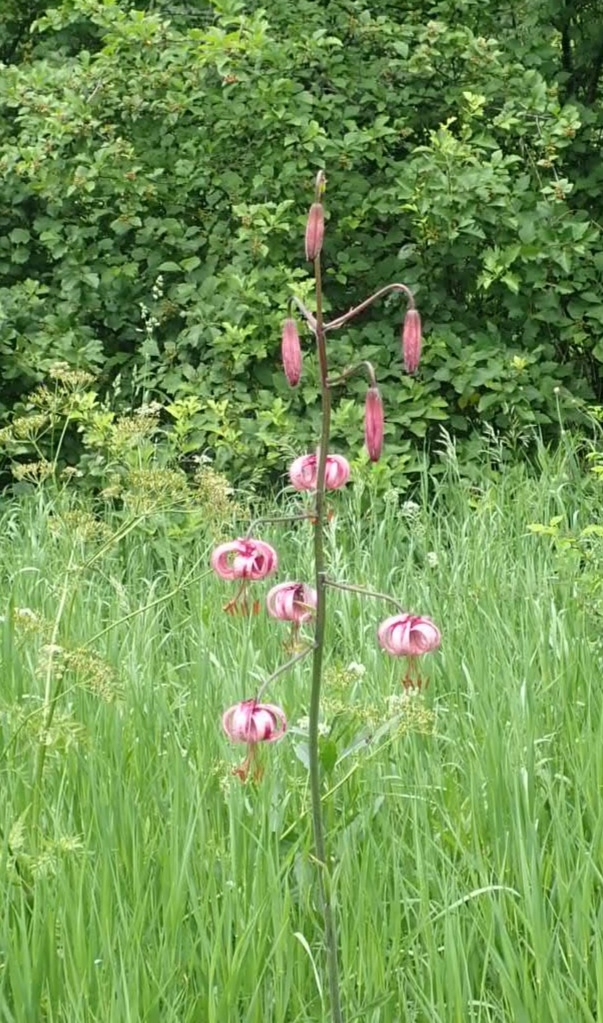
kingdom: Plantae
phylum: Tracheophyta
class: Liliopsida
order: Liliales
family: Liliaceae
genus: Lilium
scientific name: Lilium martagon
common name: Martagon lily
